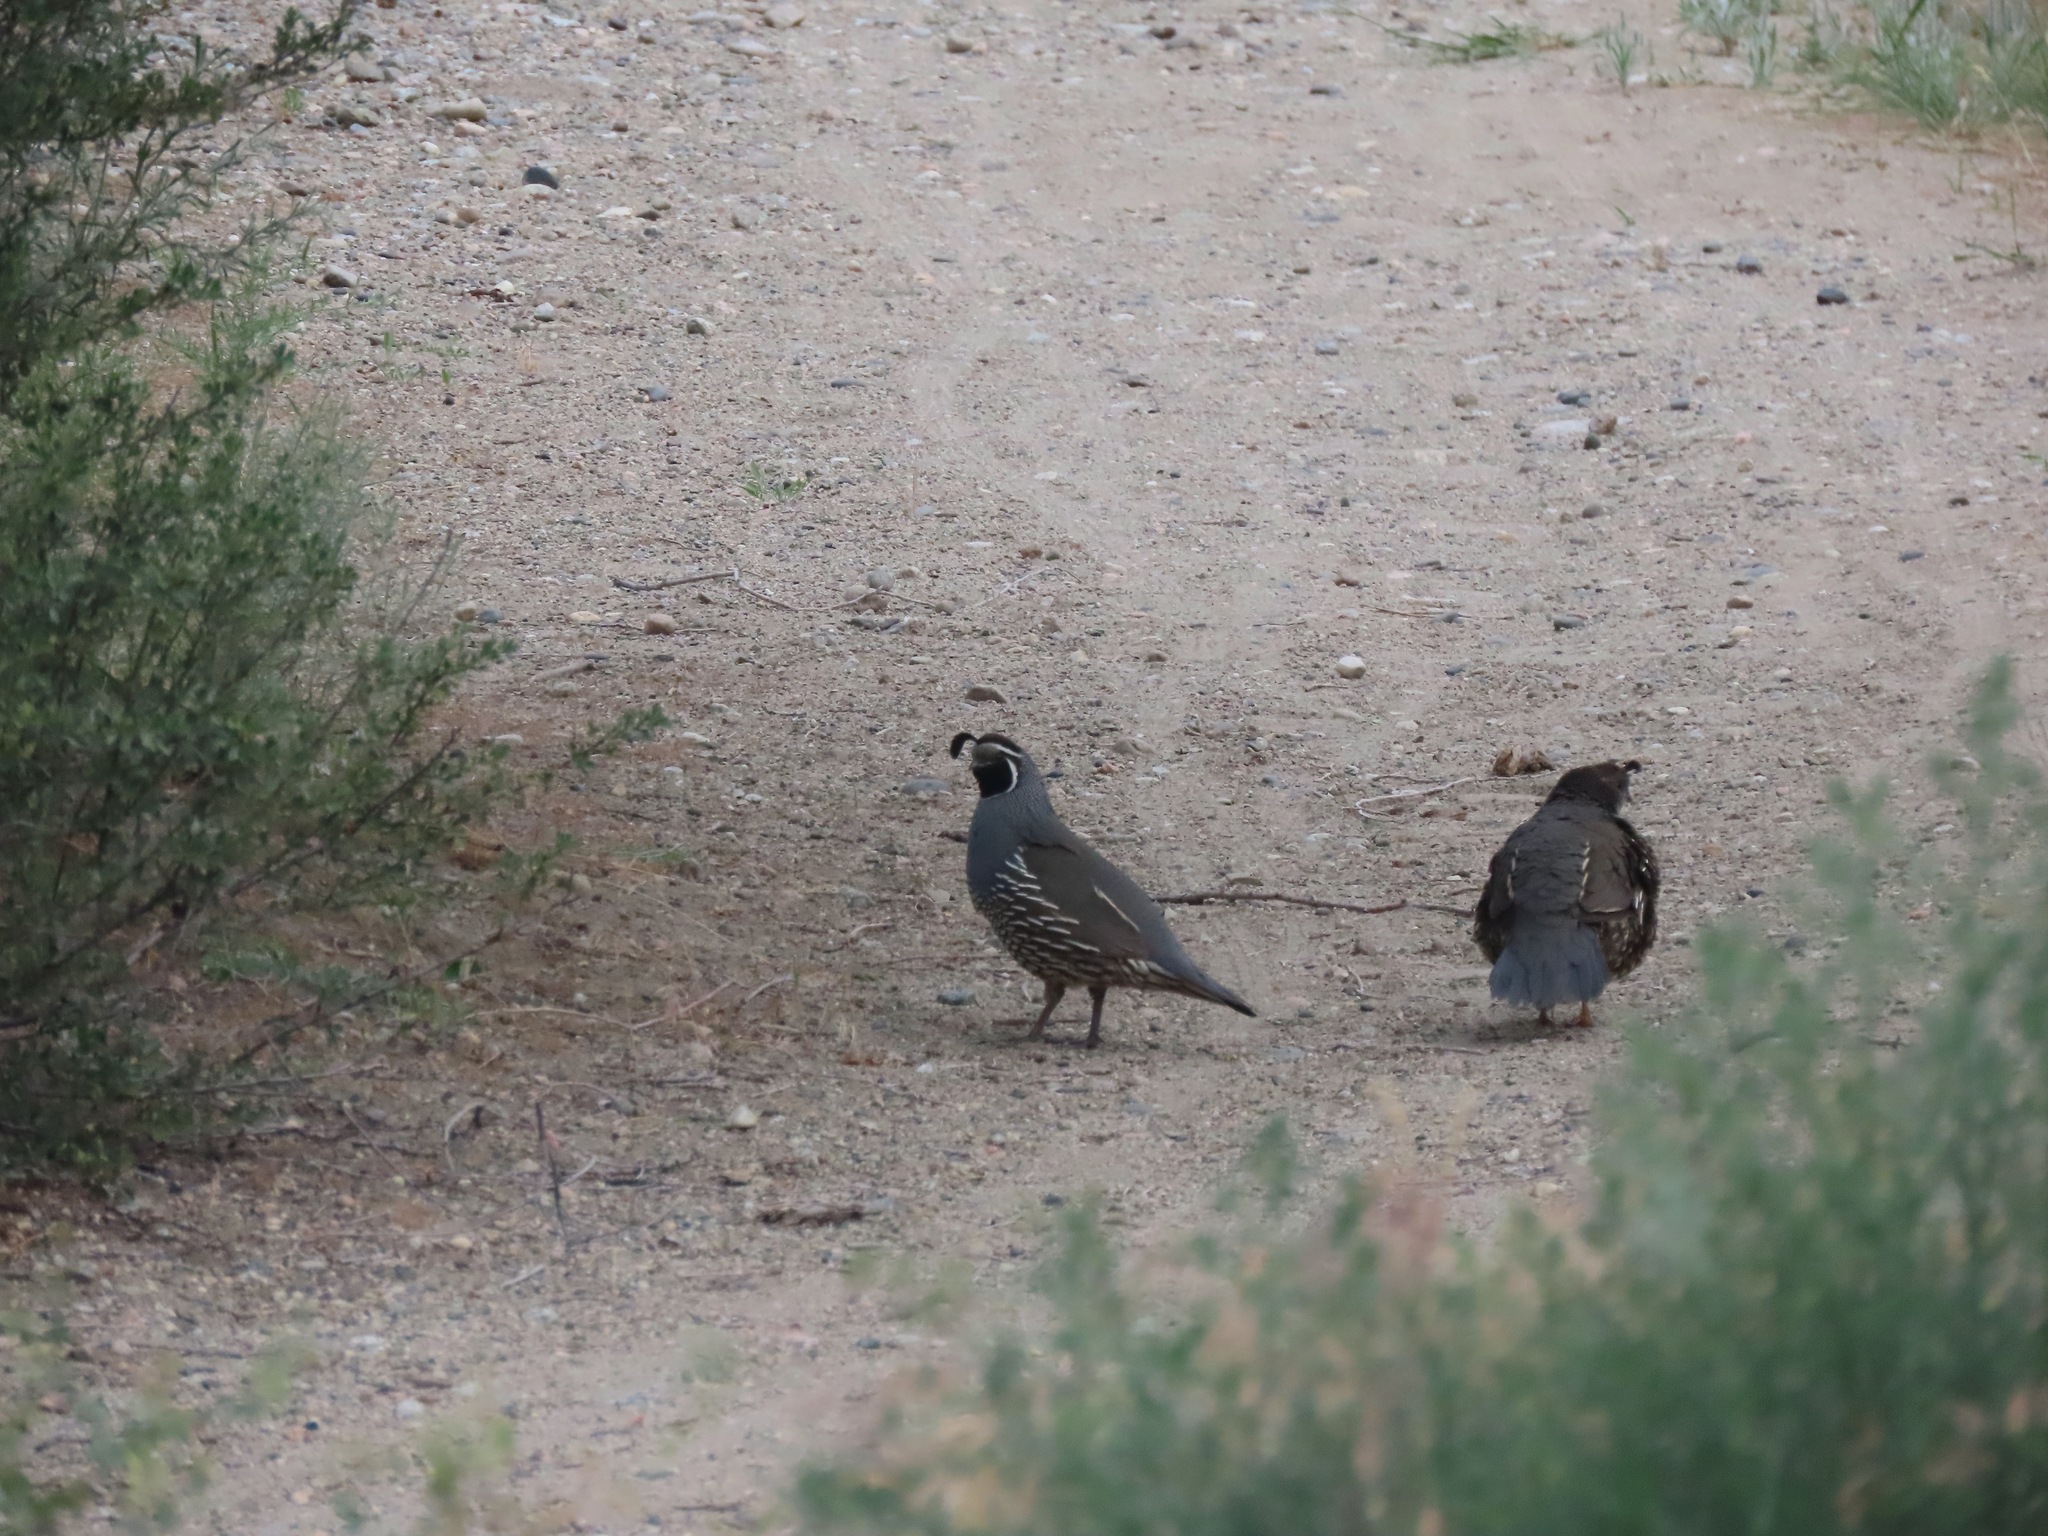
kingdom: Animalia
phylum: Chordata
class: Aves
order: Galliformes
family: Odontophoridae
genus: Callipepla
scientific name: Callipepla californica
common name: California quail
